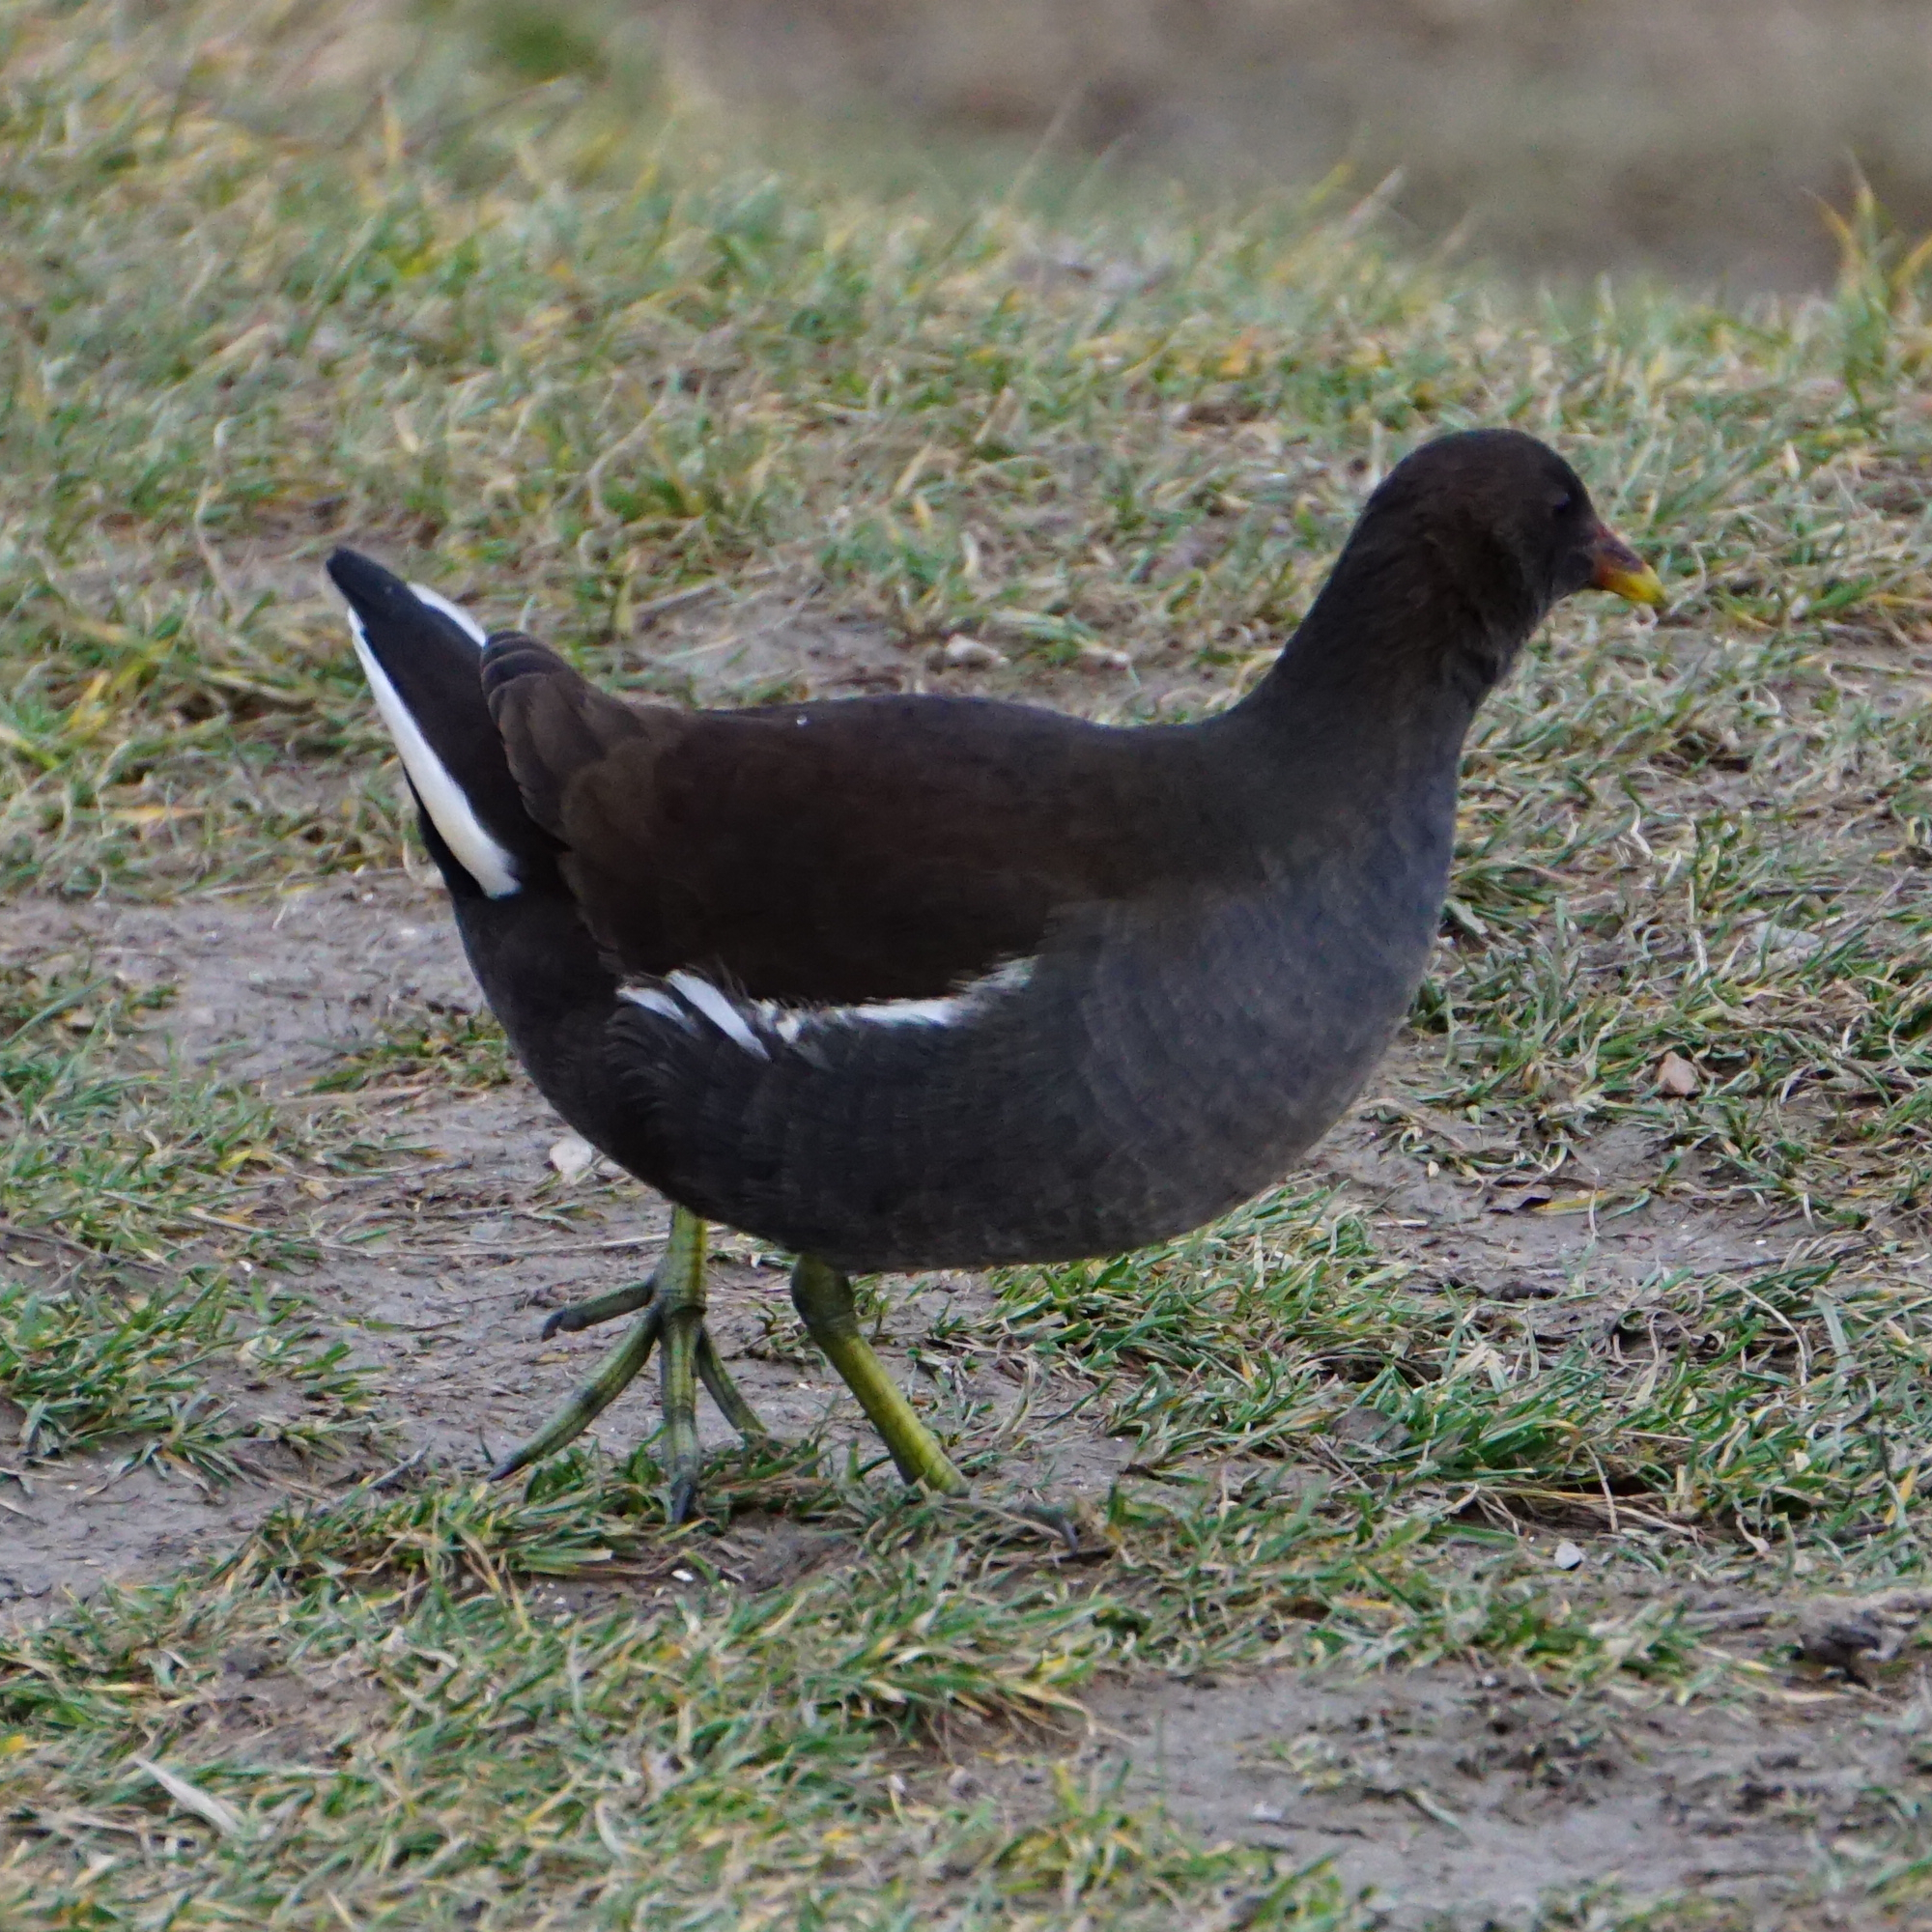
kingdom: Animalia
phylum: Chordata
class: Aves
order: Gruiformes
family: Rallidae
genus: Gallinula
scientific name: Gallinula chloropus
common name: Common moorhen
